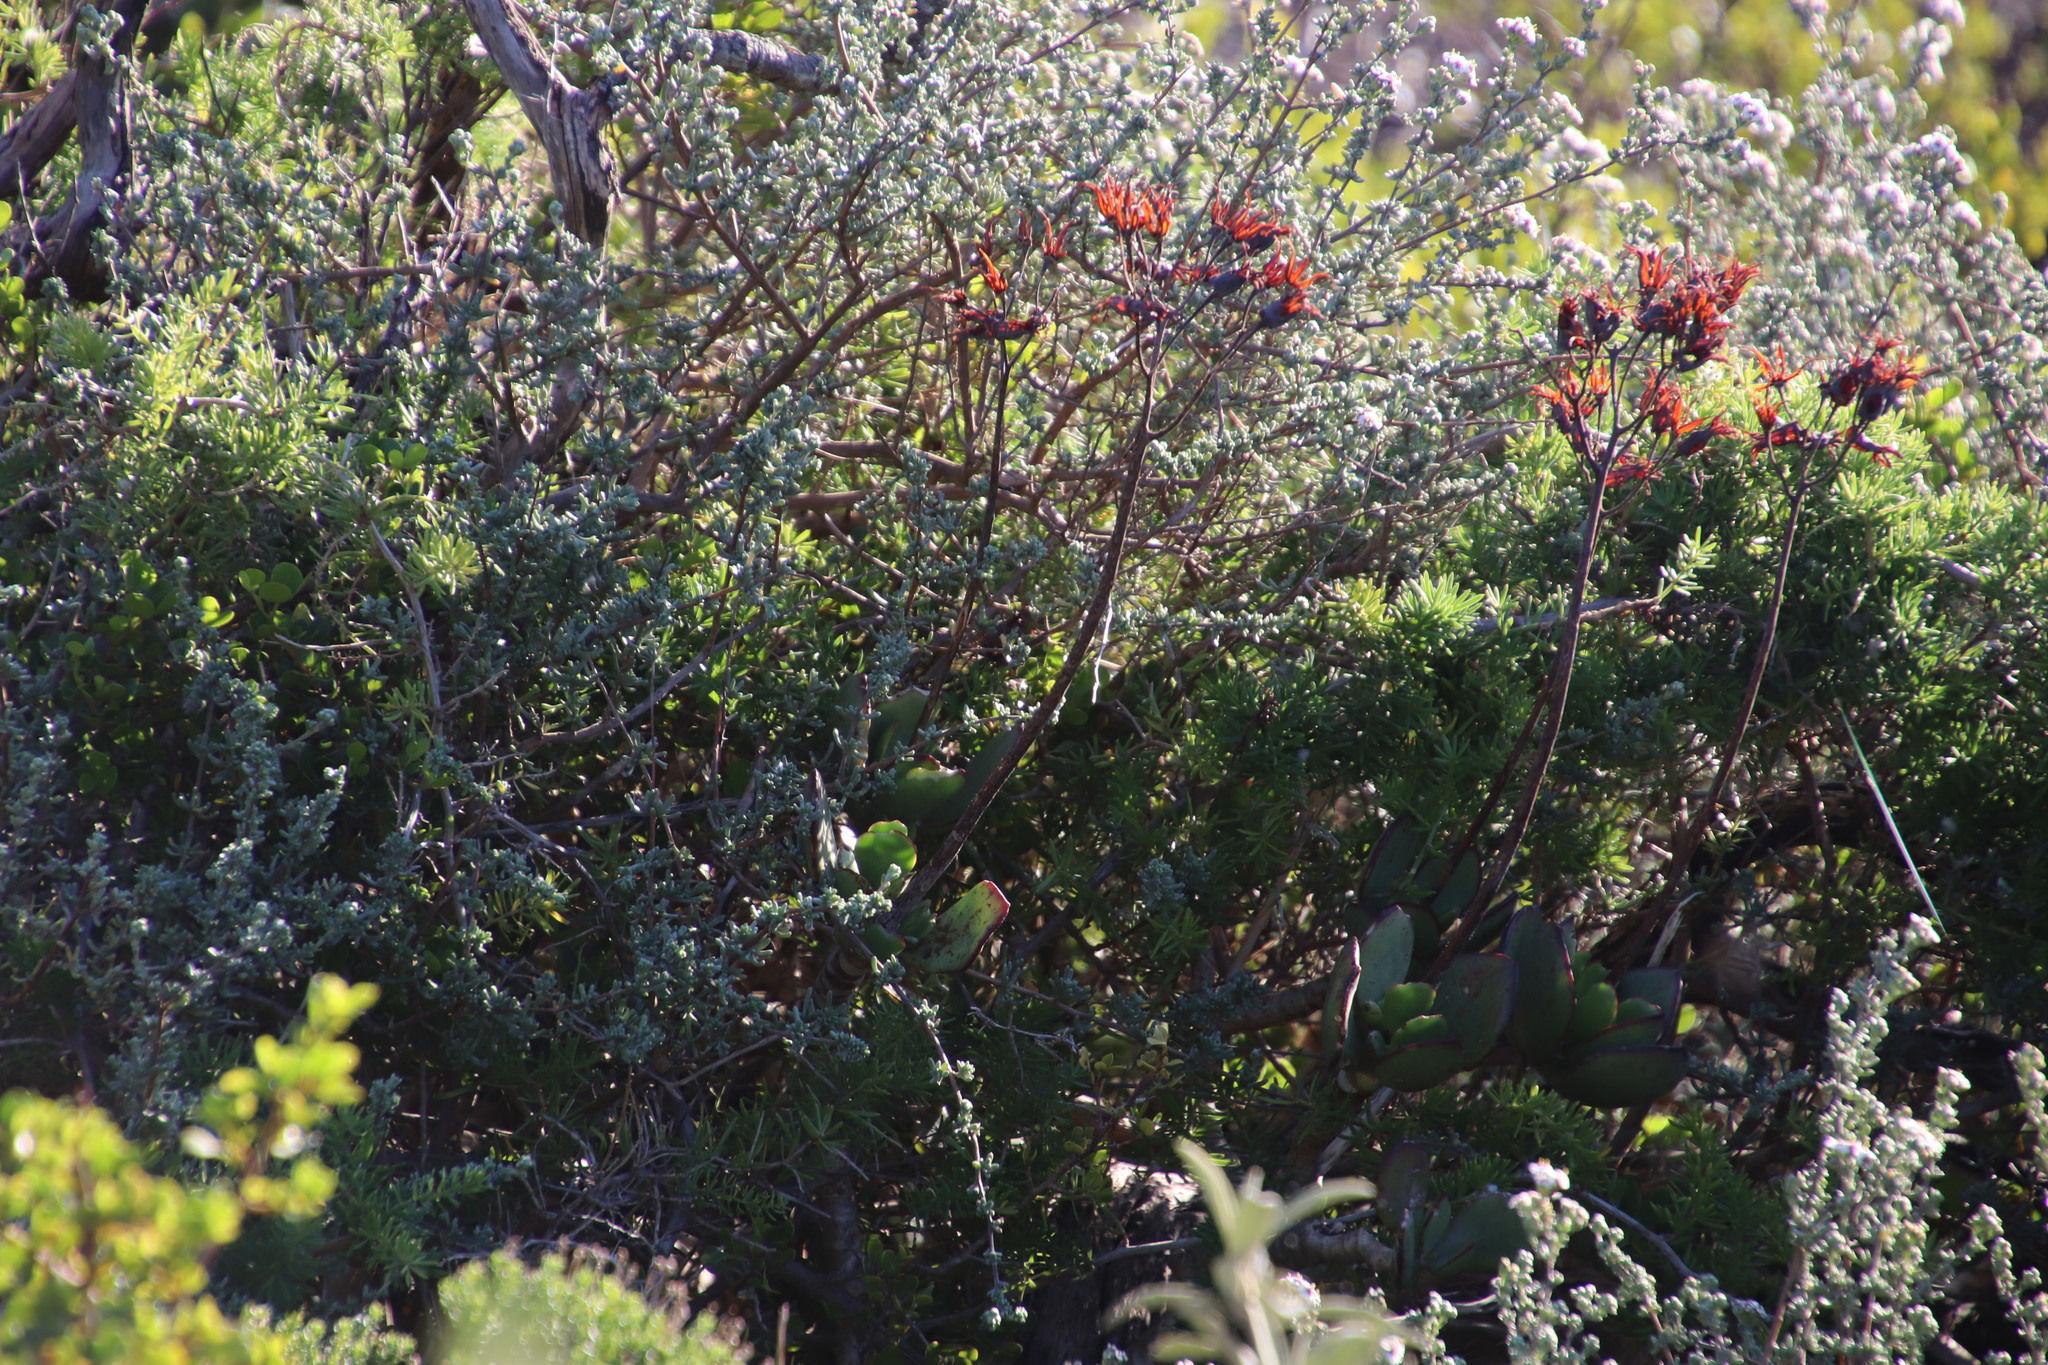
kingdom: Plantae
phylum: Tracheophyta
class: Magnoliopsida
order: Saxifragales
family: Crassulaceae
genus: Cotyledon
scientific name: Cotyledon orbiculata
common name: Pig's ear
